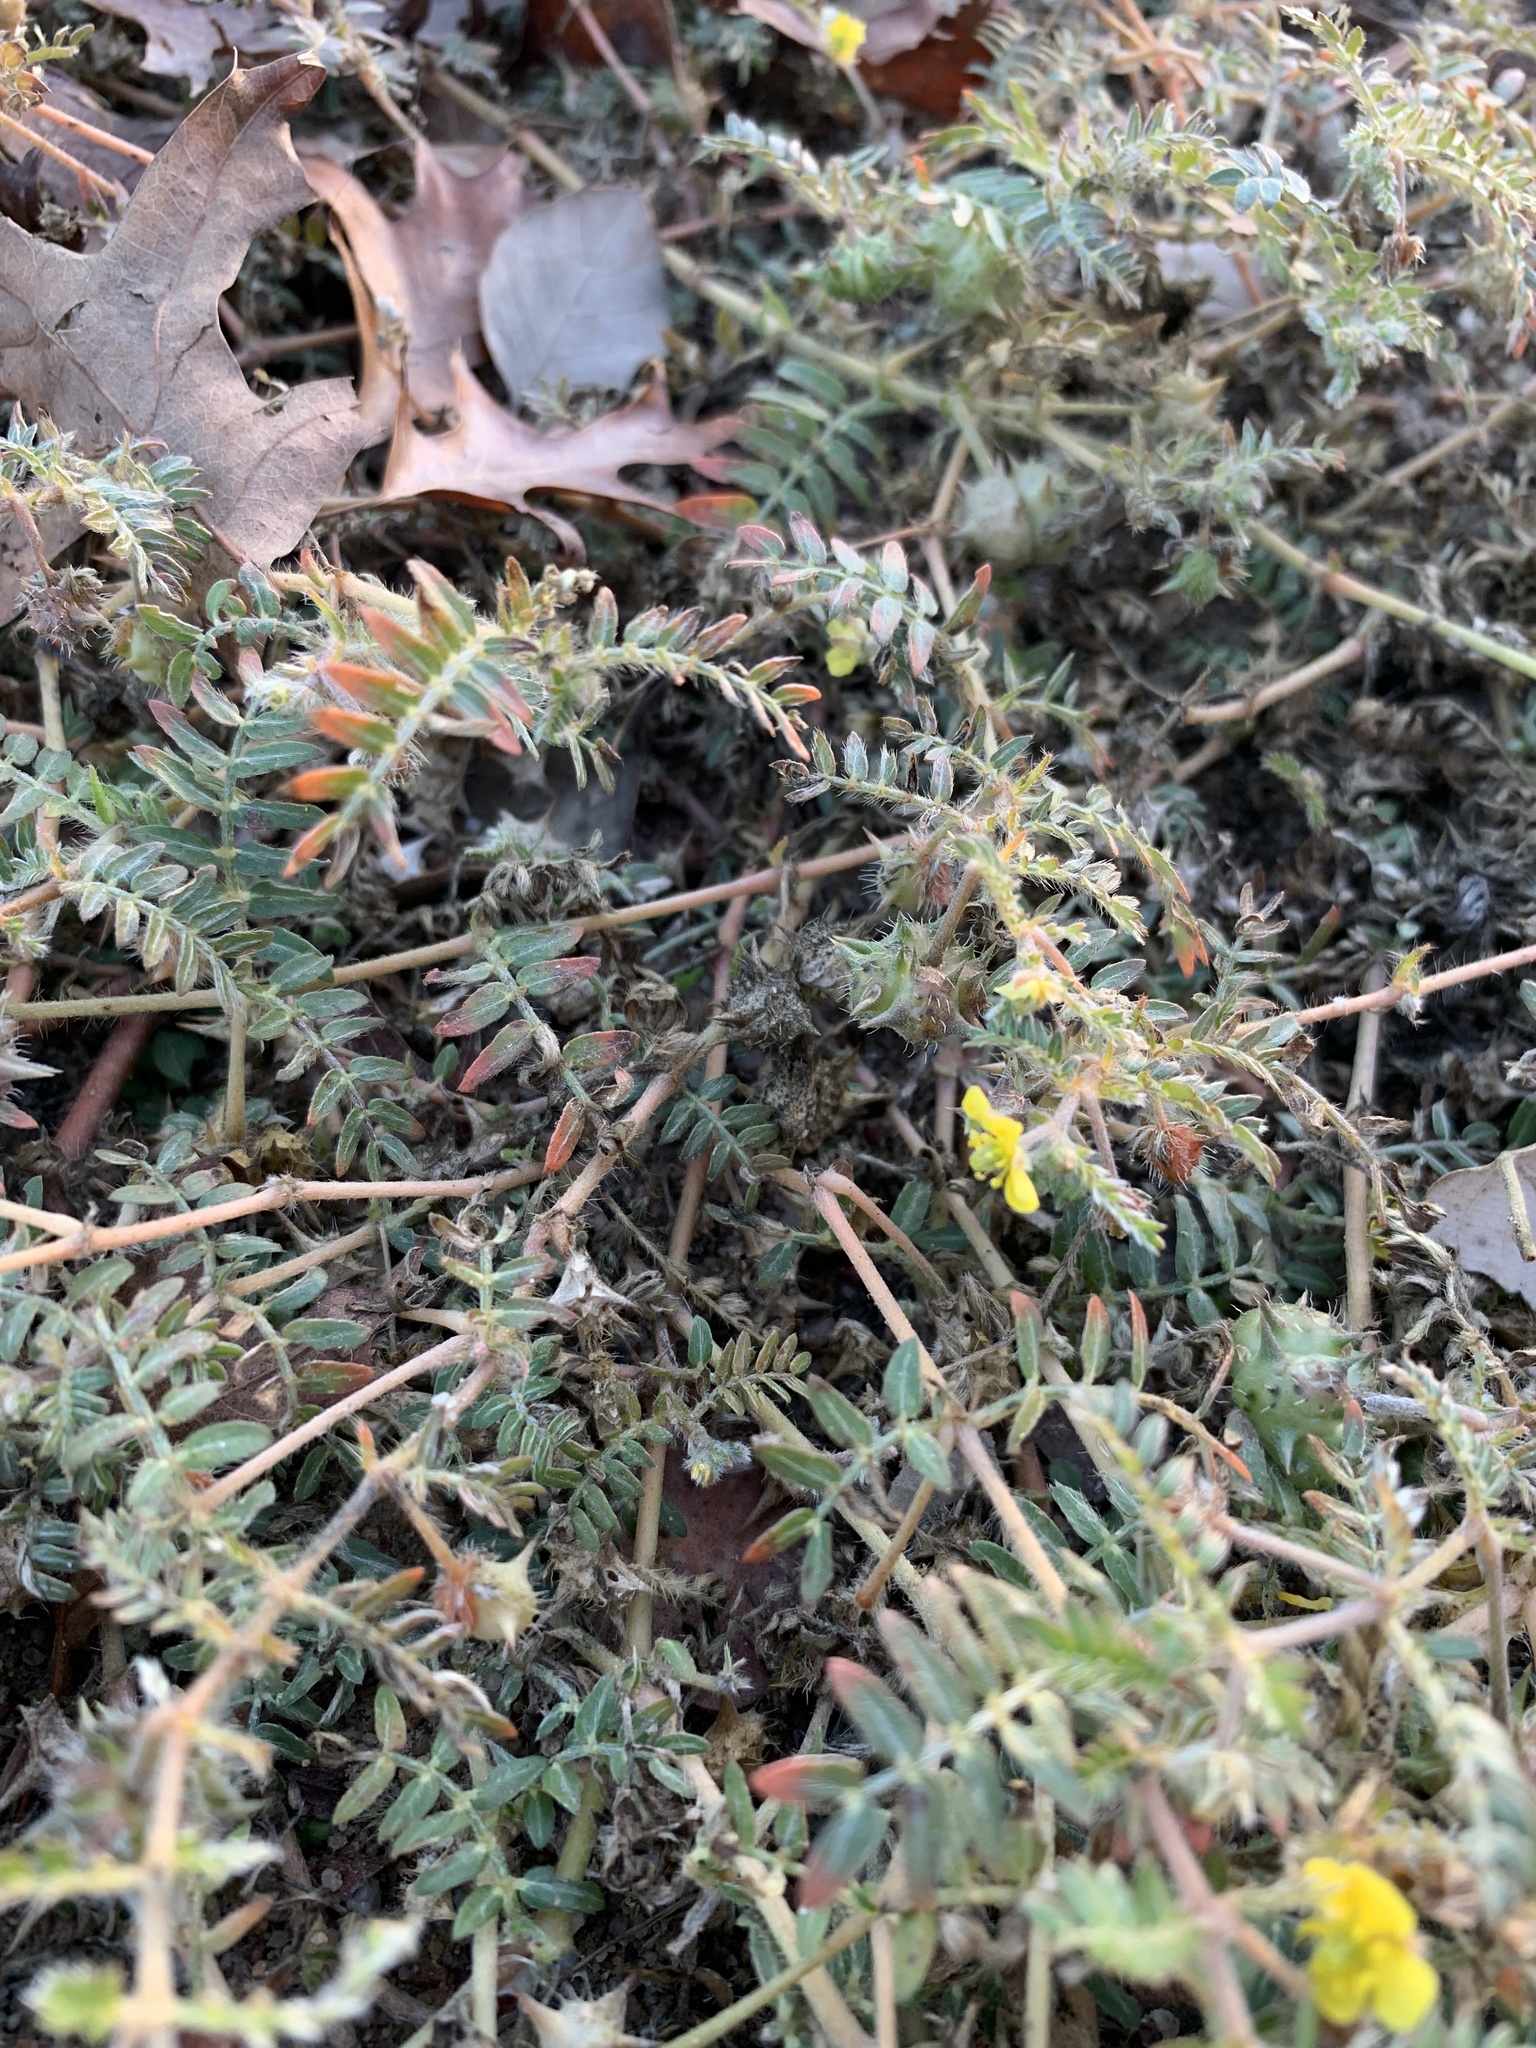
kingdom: Plantae
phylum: Tracheophyta
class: Magnoliopsida
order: Zygophyllales
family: Zygophyllaceae
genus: Tribulus
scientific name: Tribulus terrestris
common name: Puncturevine
